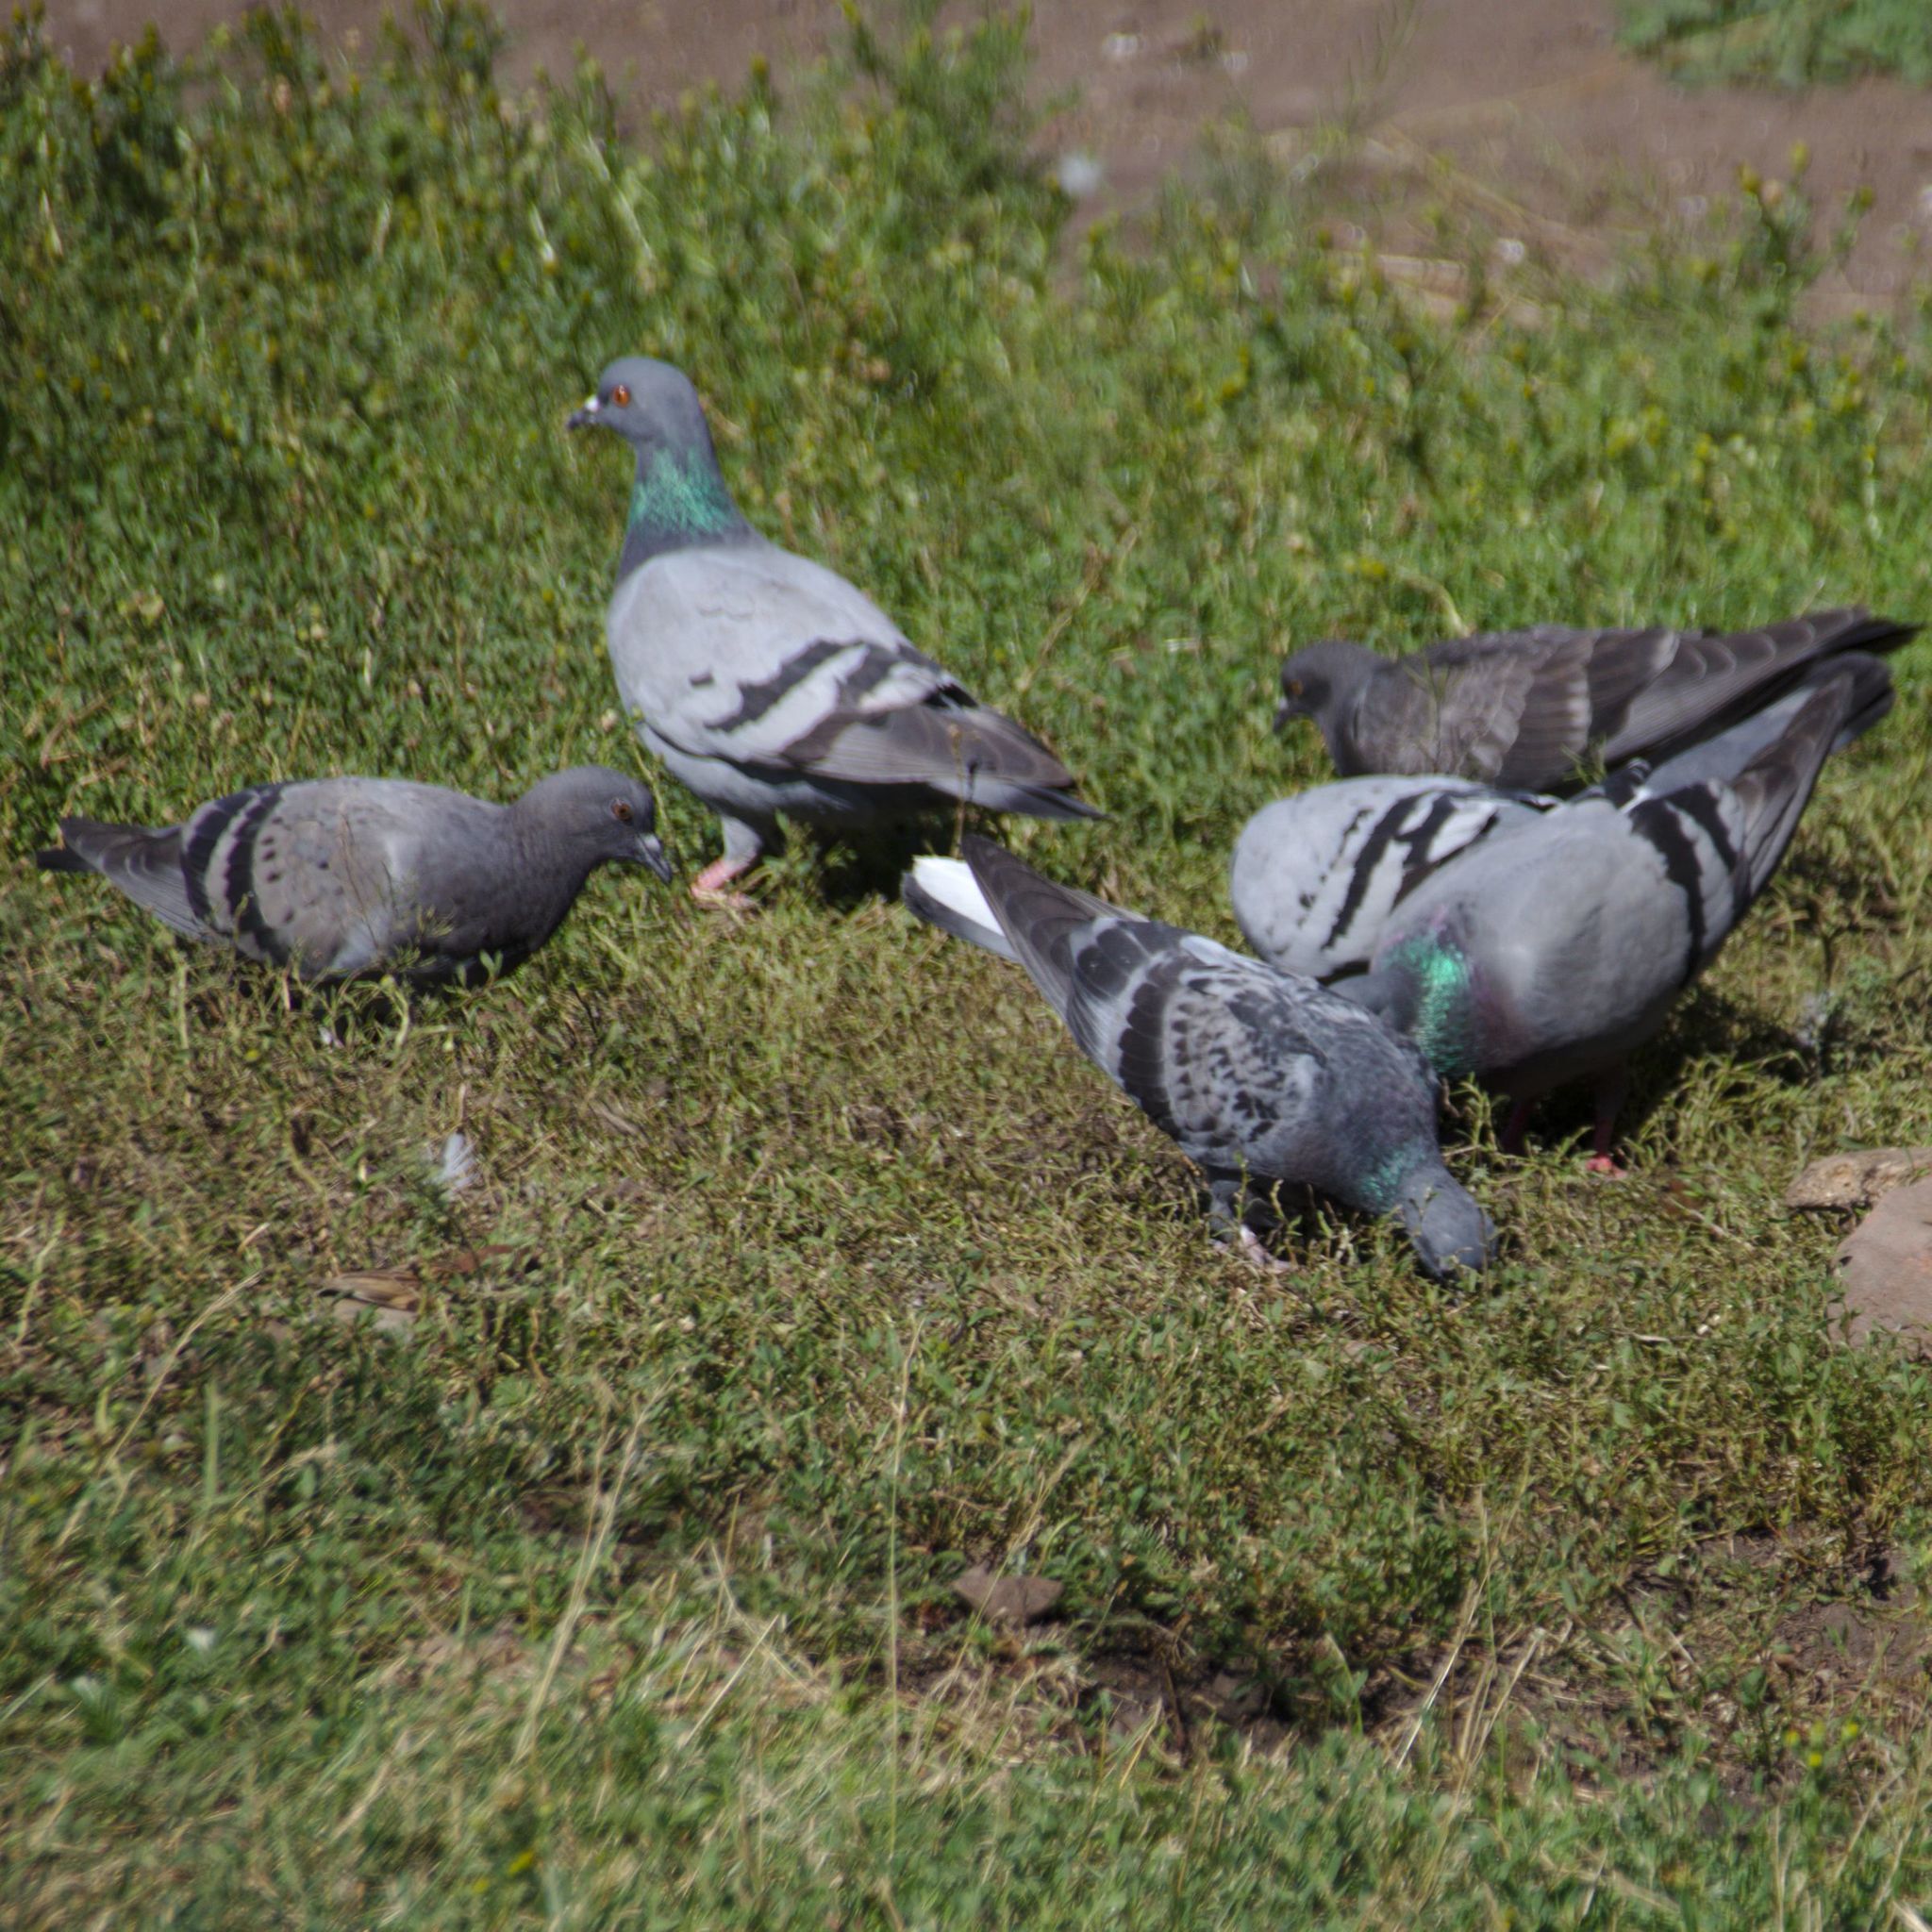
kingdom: Animalia
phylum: Chordata
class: Aves
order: Columbiformes
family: Columbidae
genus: Columba
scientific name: Columba livia
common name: Rock pigeon
